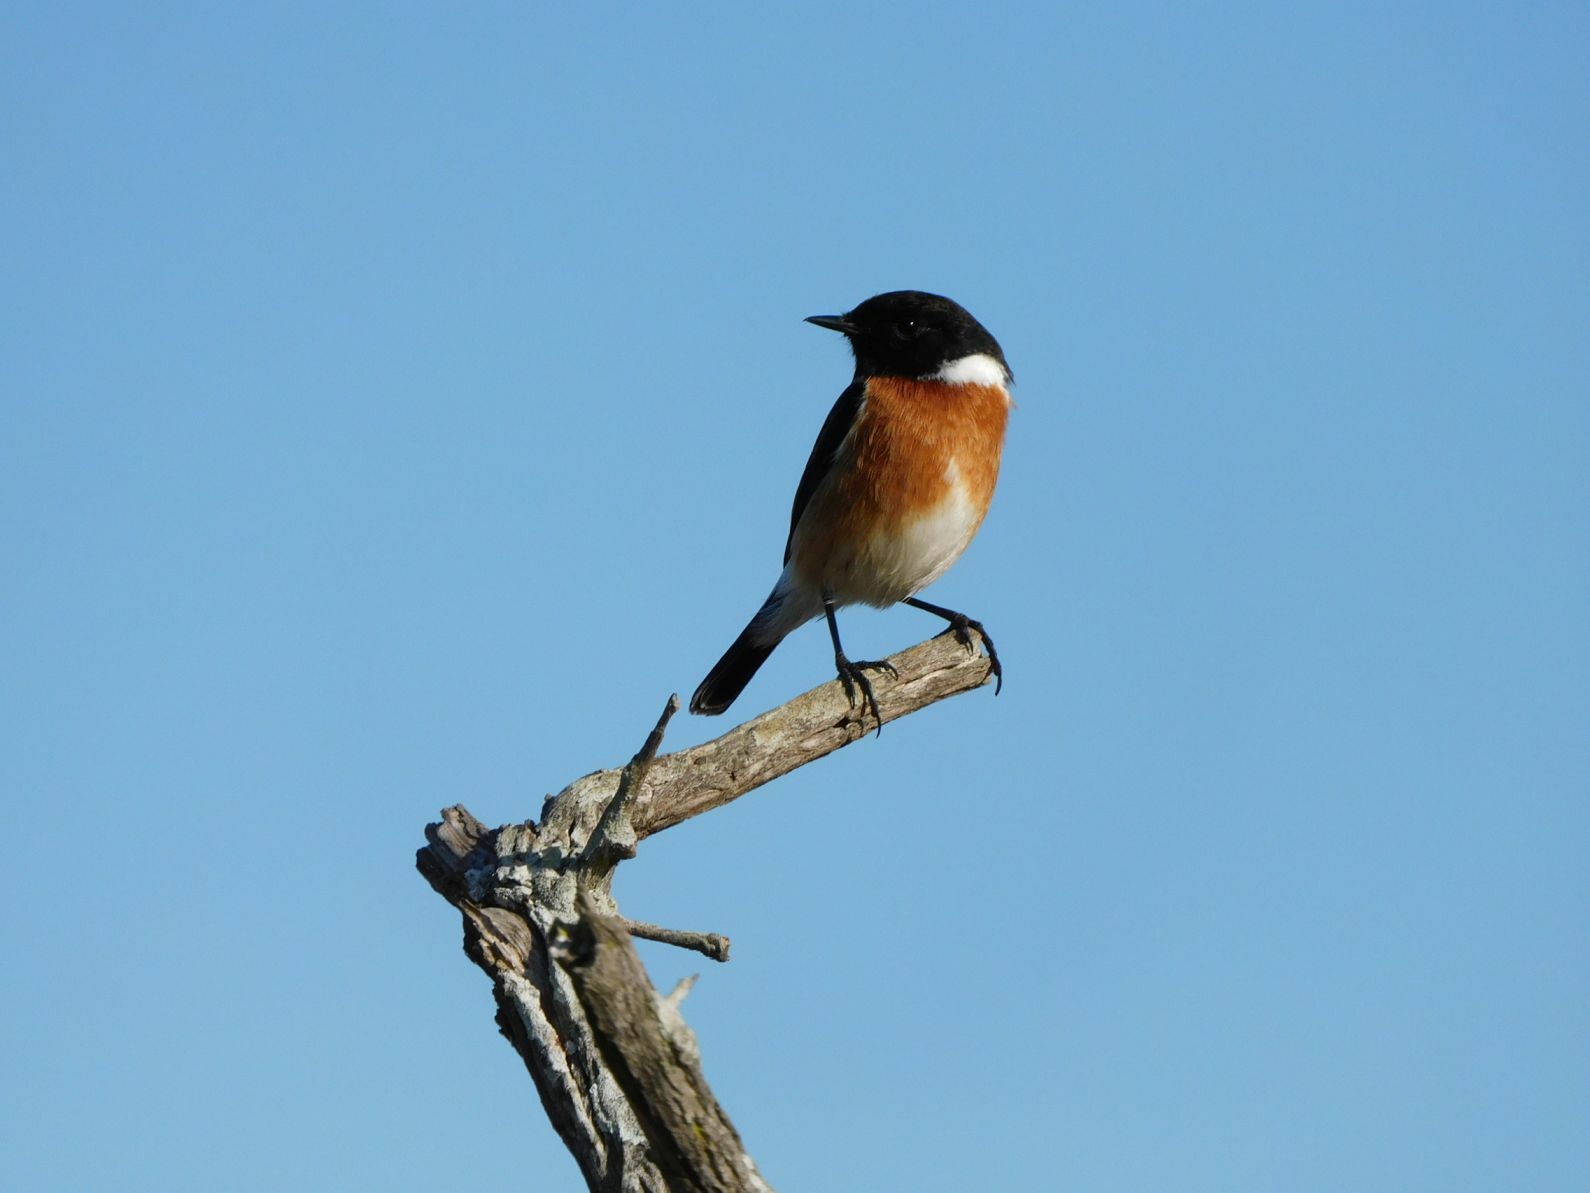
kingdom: Animalia
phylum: Chordata
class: Aves
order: Passeriformes
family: Muscicapidae
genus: Saxicola
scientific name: Saxicola torquatus
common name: African stonechat
